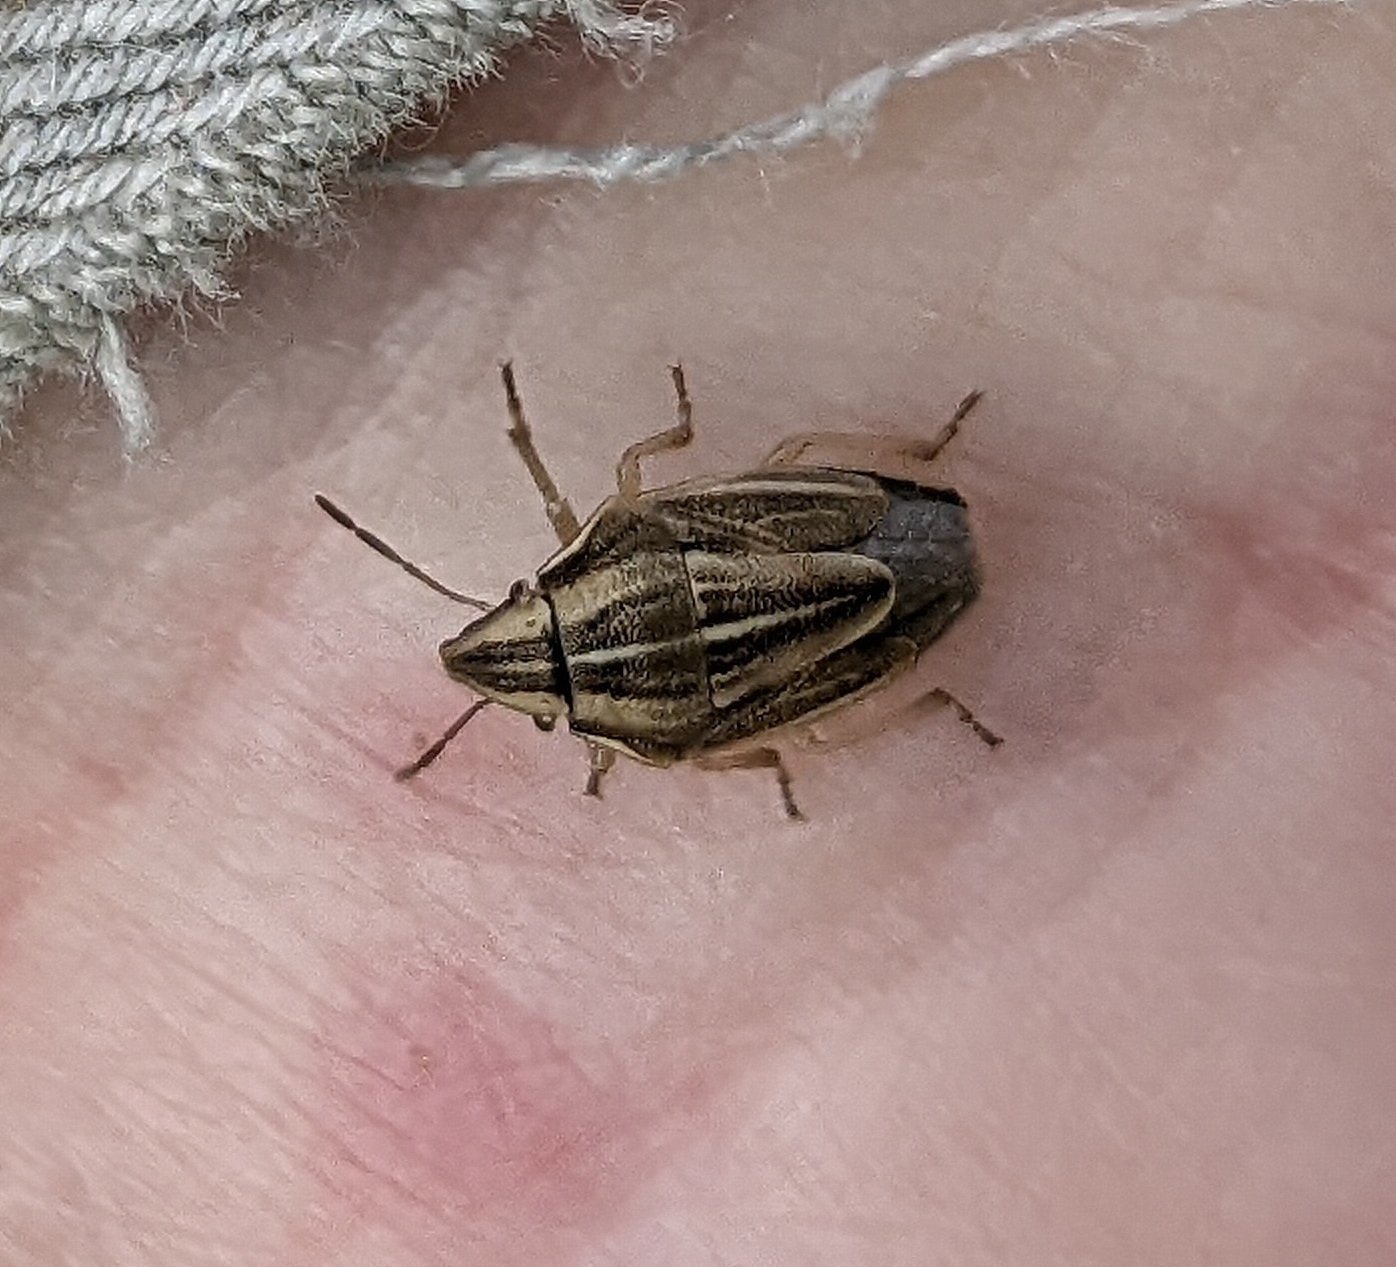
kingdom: Animalia
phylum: Arthropoda
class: Insecta
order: Hemiptera
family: Pentatomidae
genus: Aelia
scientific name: Aelia acuminata
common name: Bishop's mitre
